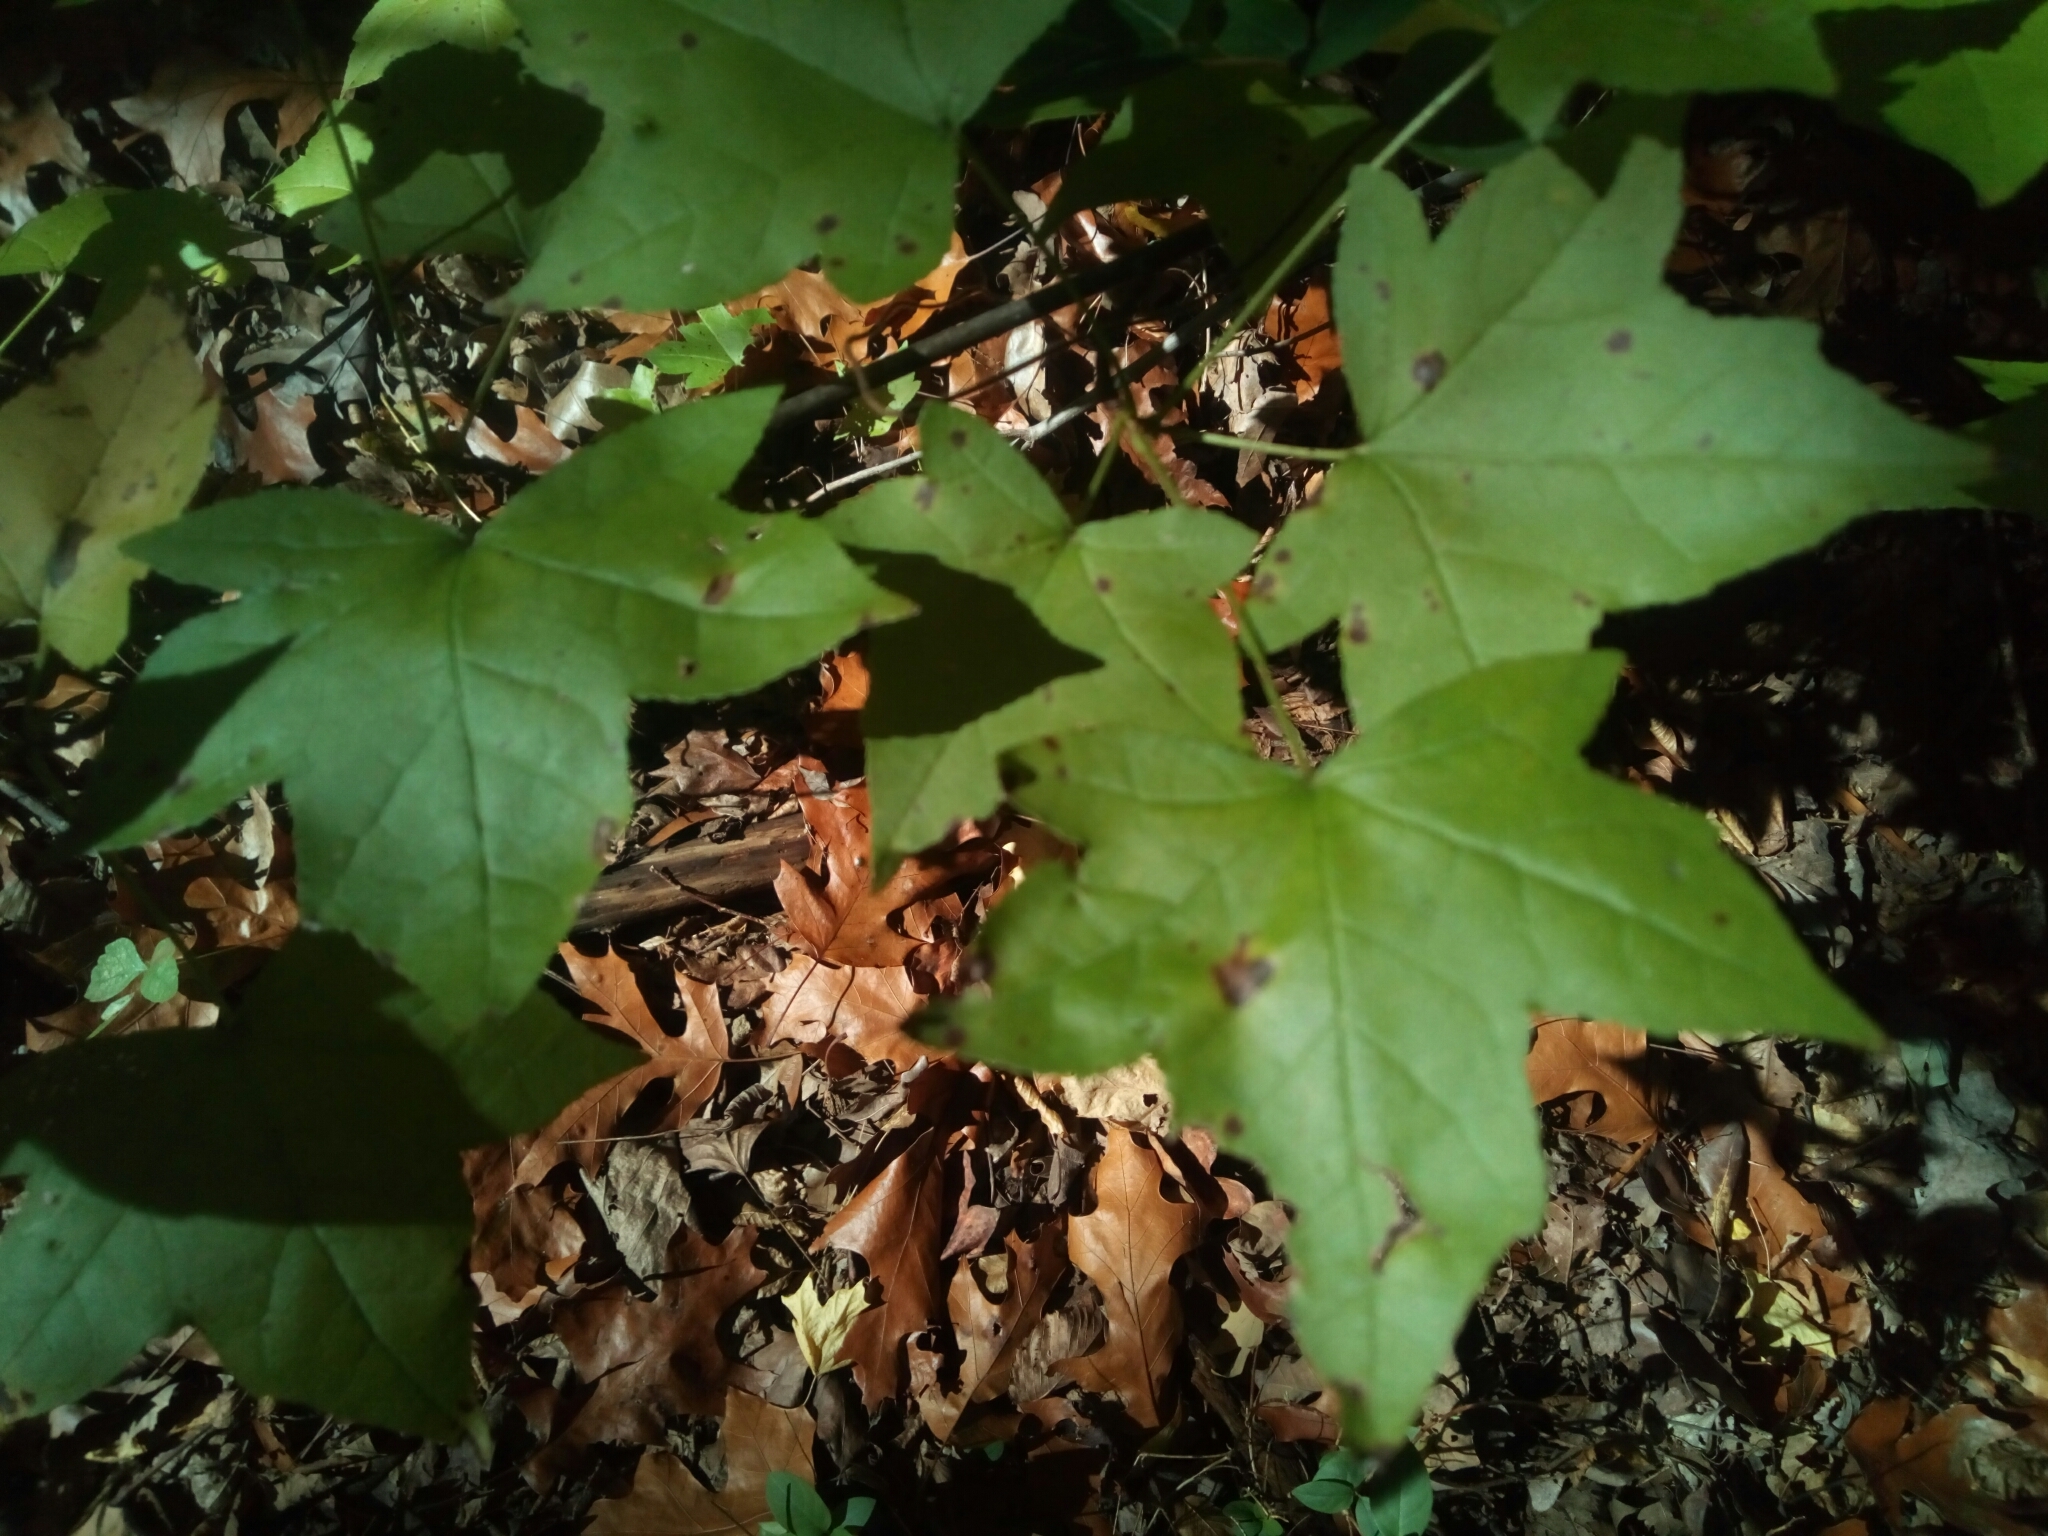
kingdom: Plantae
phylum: Tracheophyta
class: Magnoliopsida
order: Saxifragales
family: Altingiaceae
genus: Liquidambar
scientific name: Liquidambar styraciflua
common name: Sweet gum
